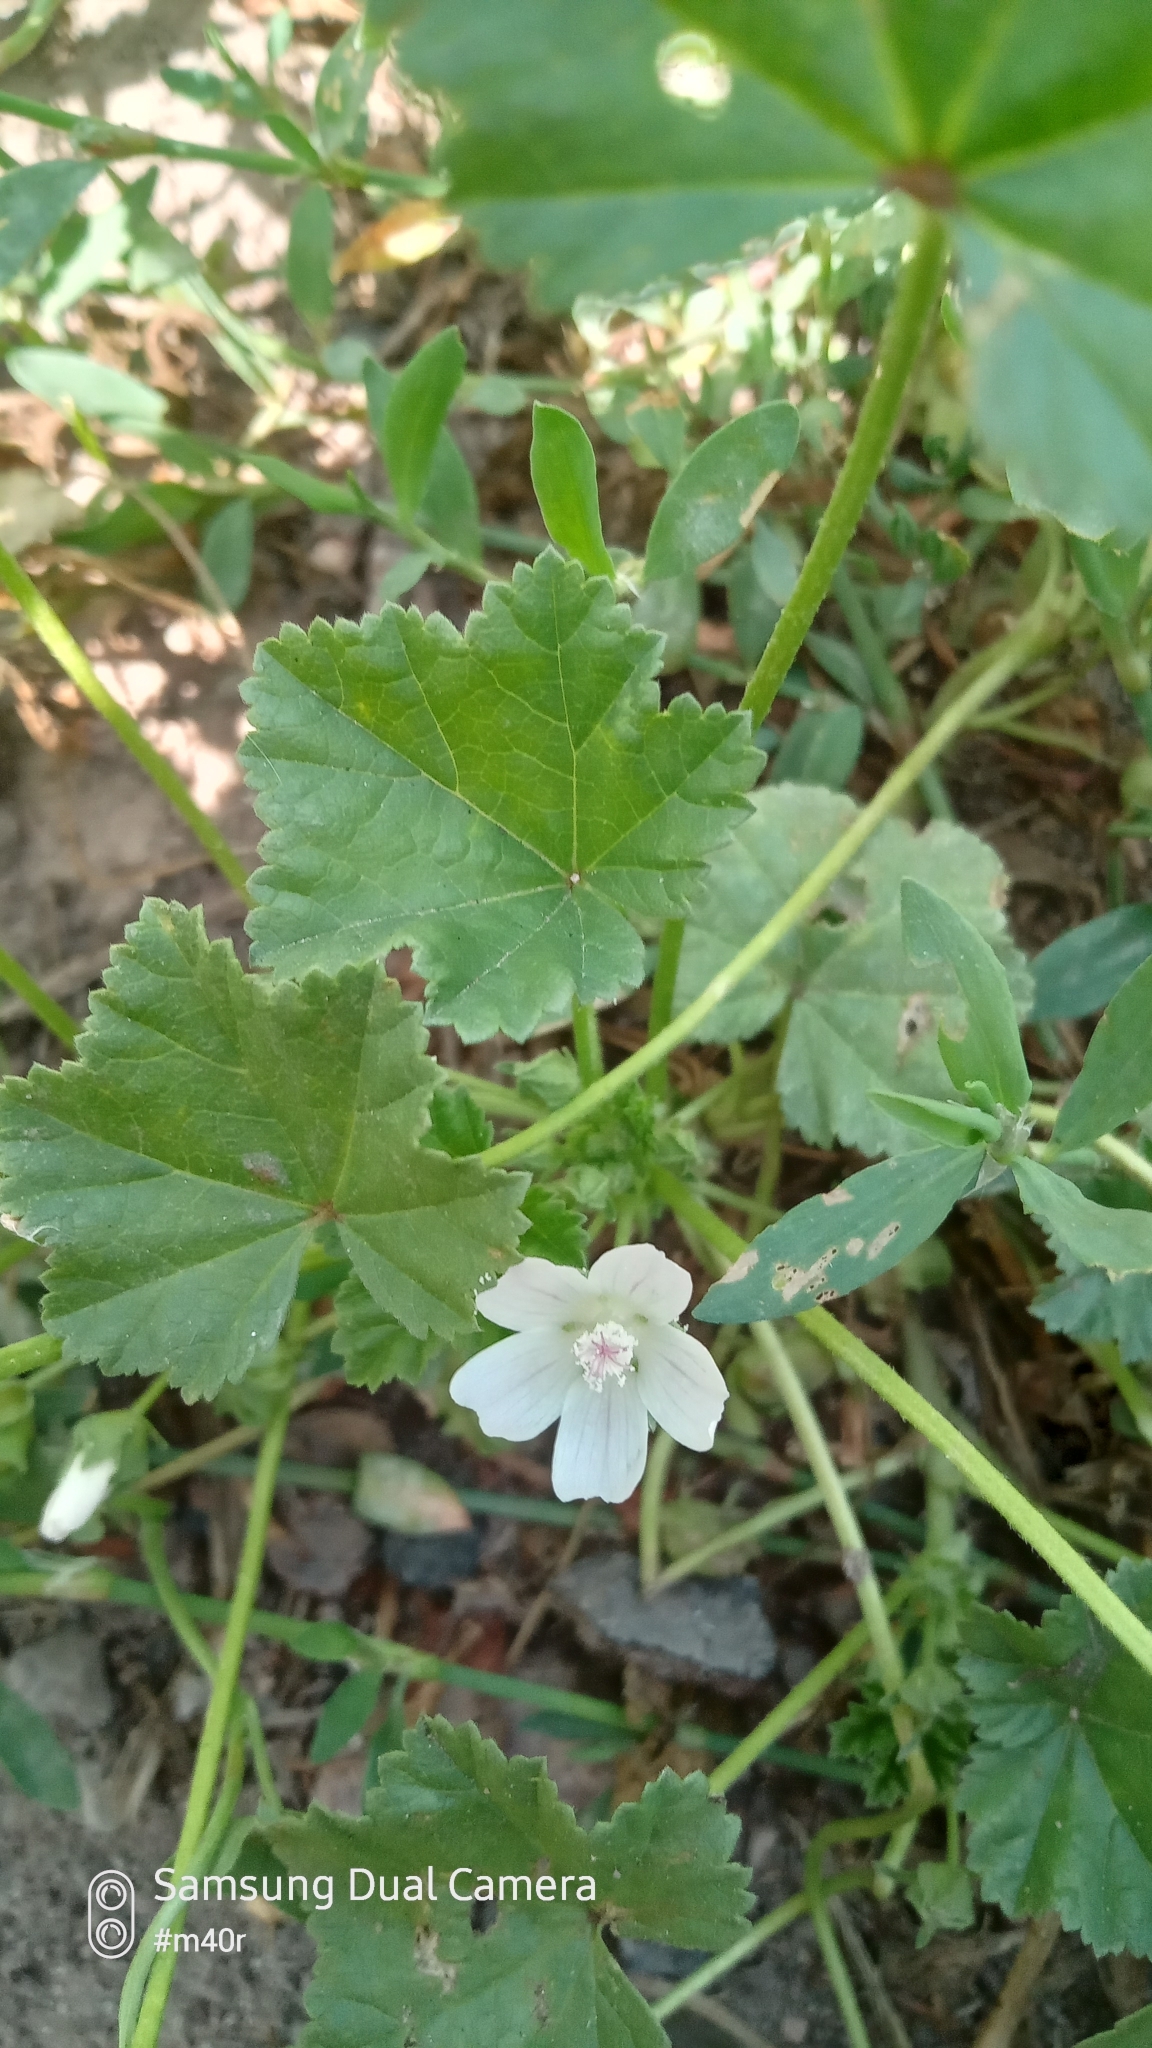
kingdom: Plantae
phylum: Tracheophyta
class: Magnoliopsida
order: Malvales
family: Malvaceae
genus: Malva
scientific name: Malva neglecta
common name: Common mallow
